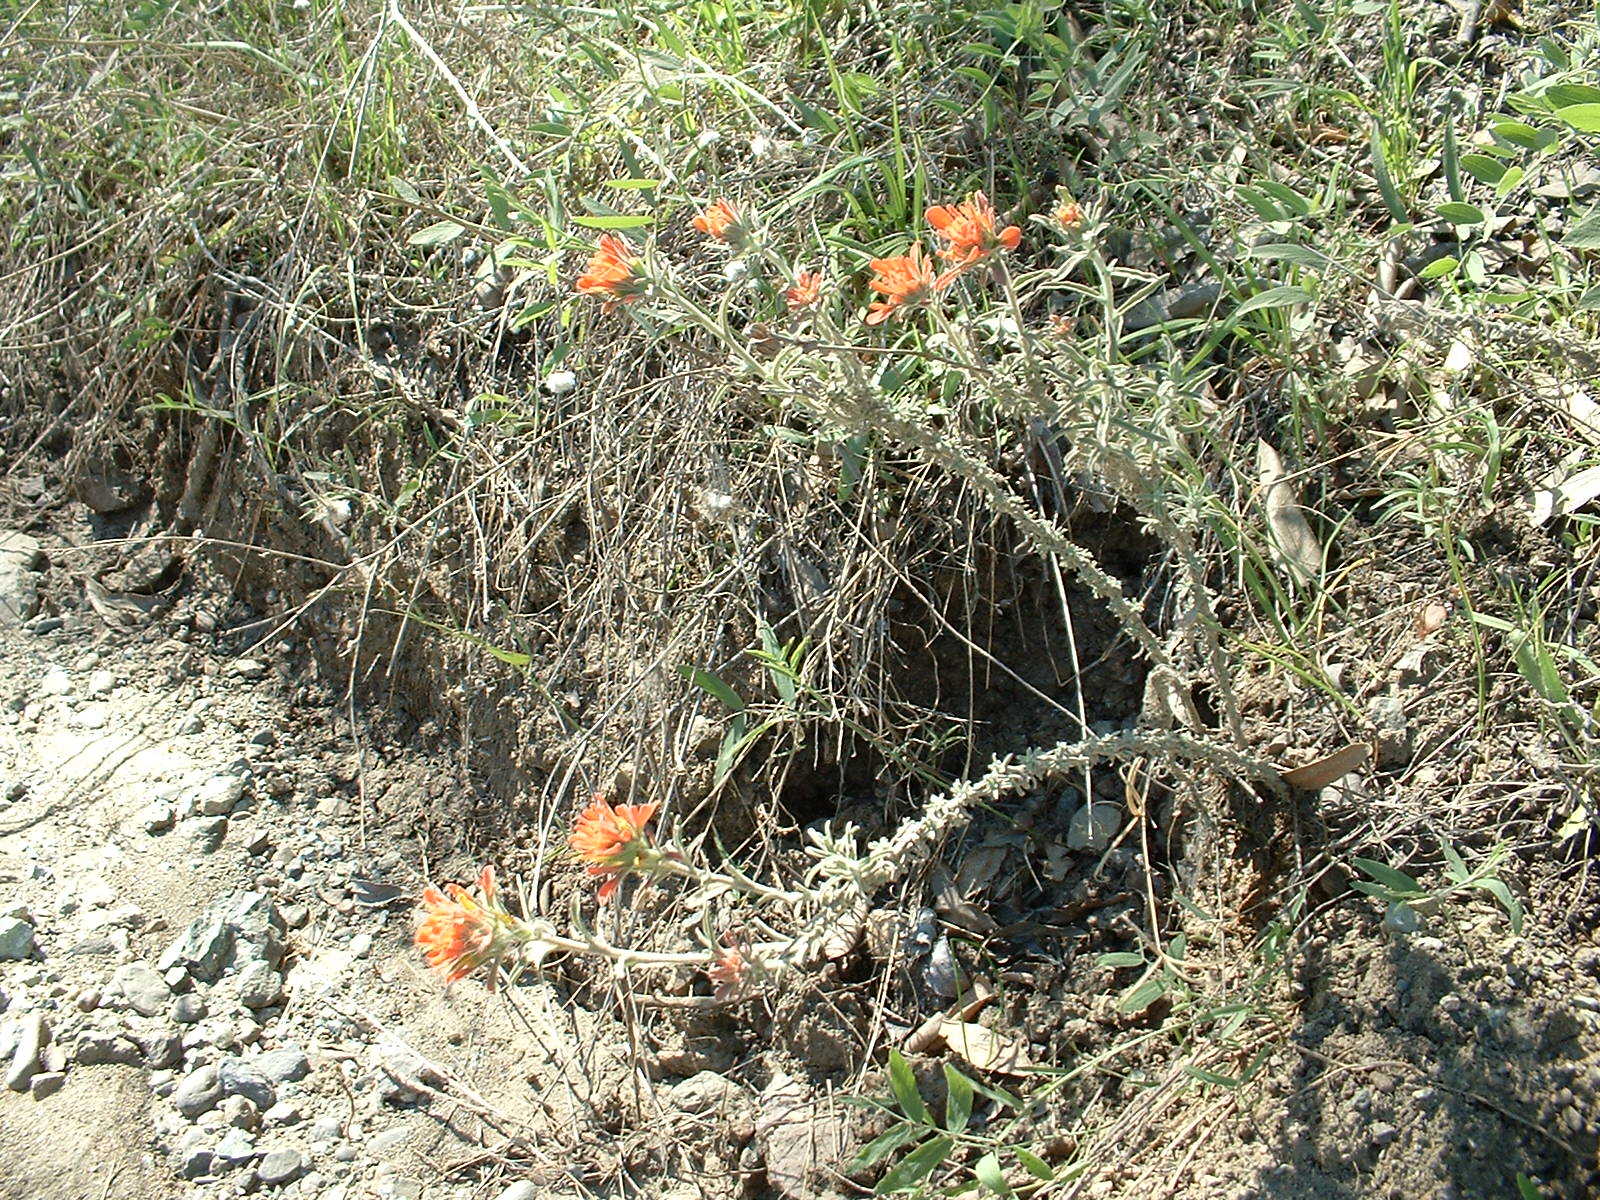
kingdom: Plantae
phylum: Tracheophyta
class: Magnoliopsida
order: Lamiales
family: Orobanchaceae
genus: Castilleja
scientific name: Castilleja foliolosa
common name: Woolly indian paintbrush
